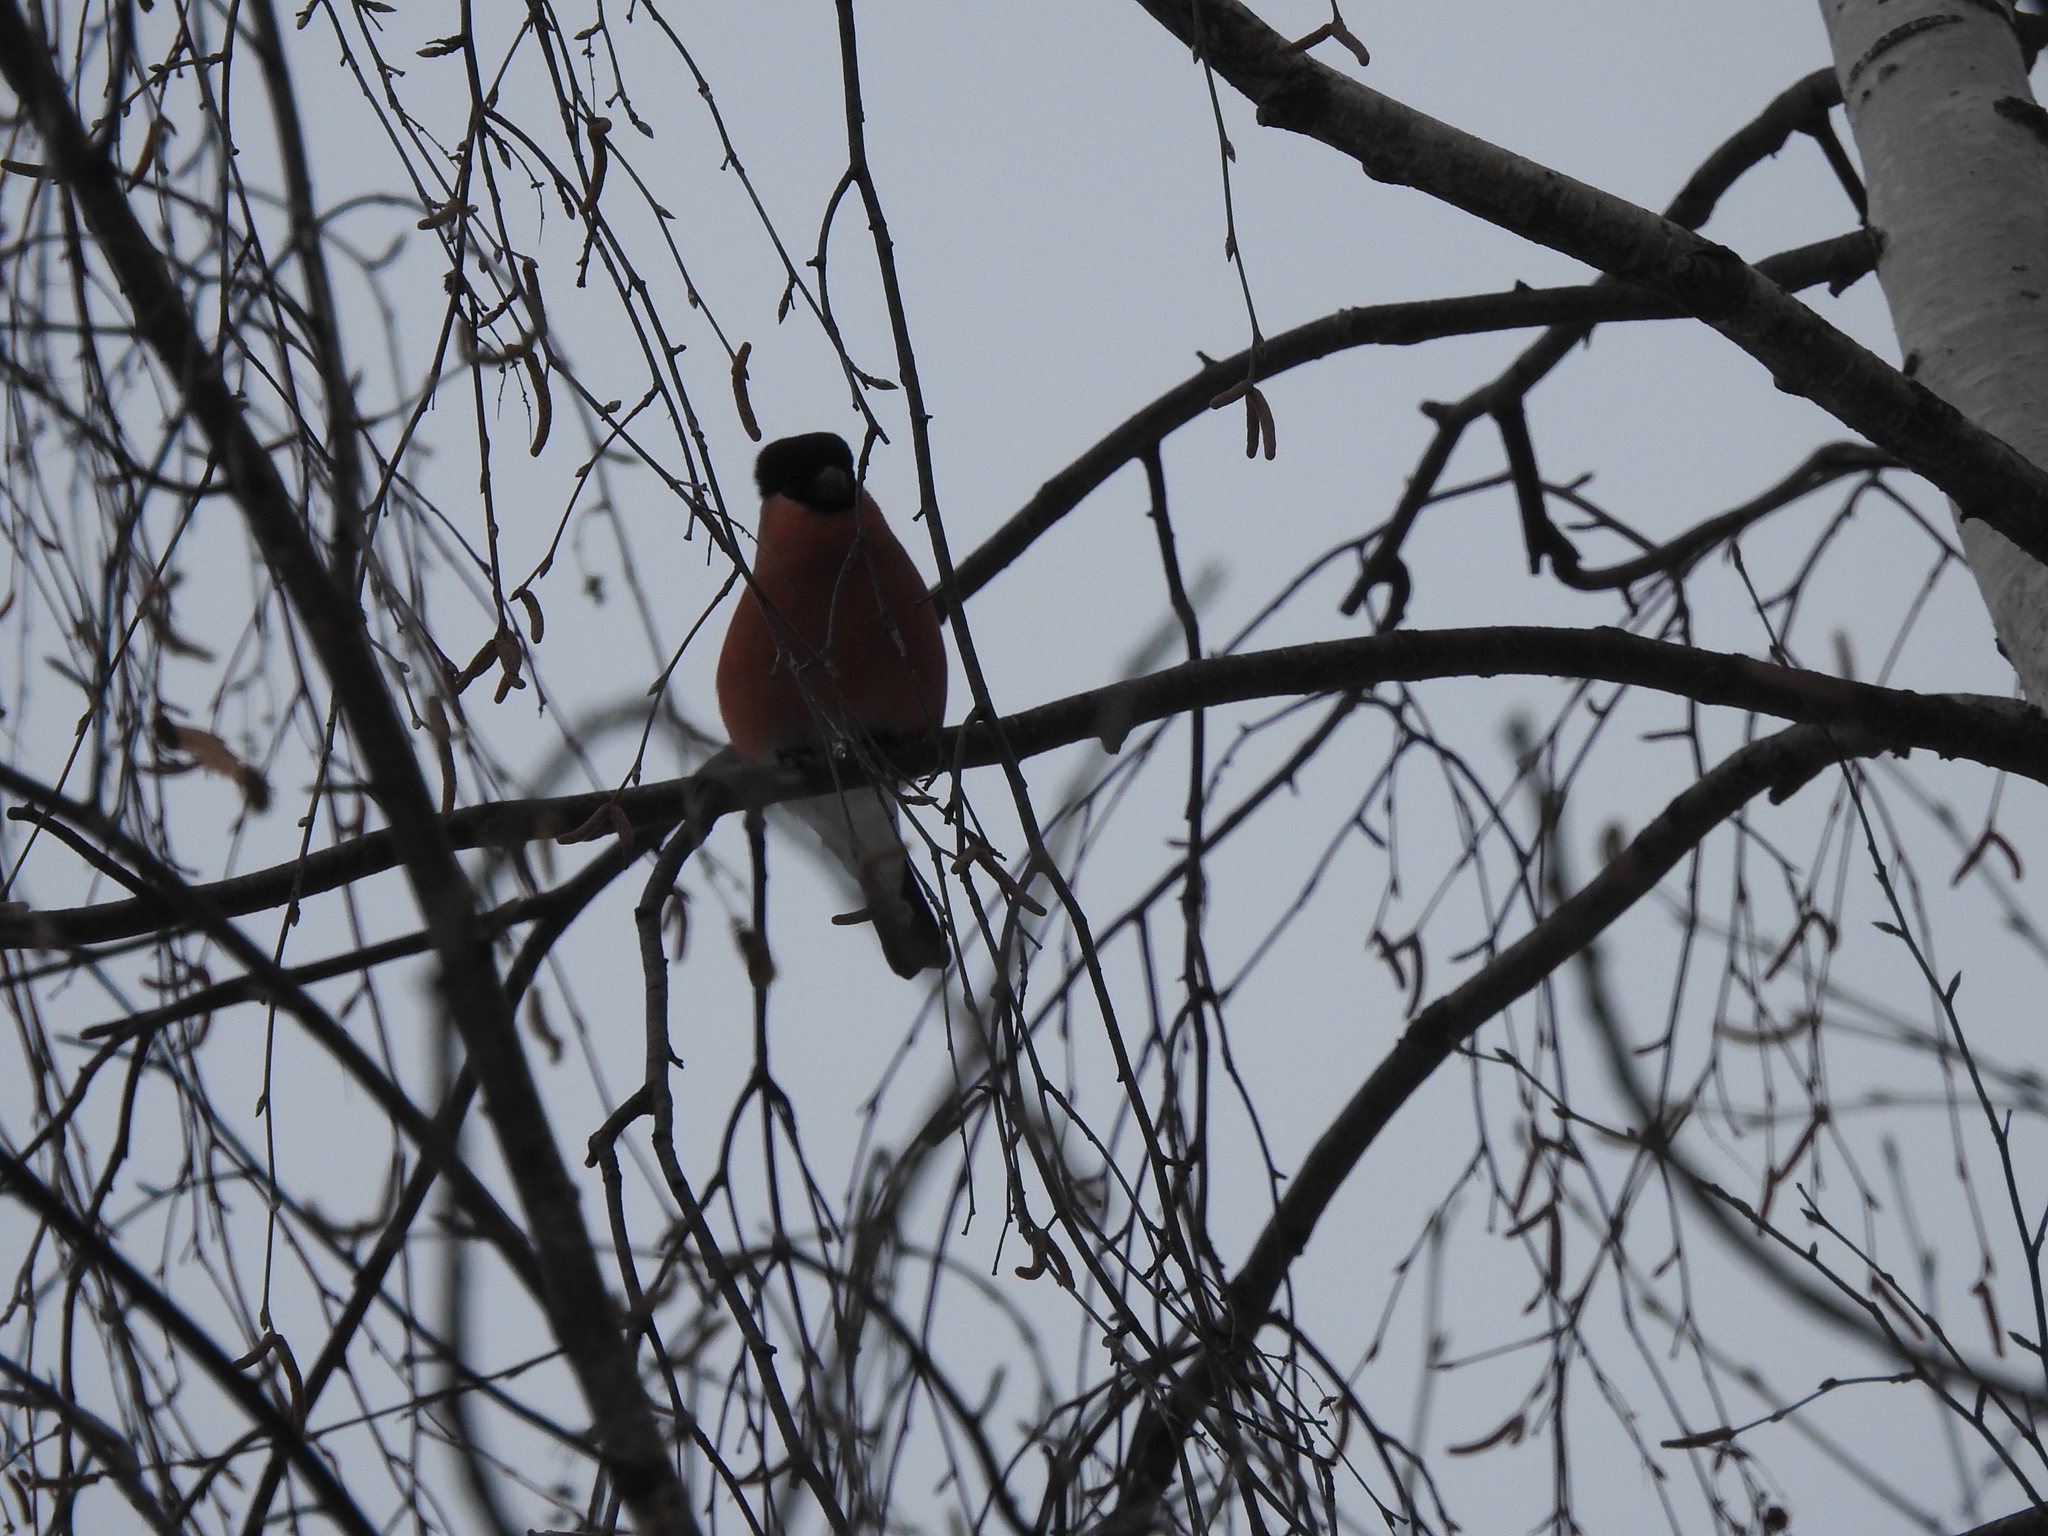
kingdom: Animalia
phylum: Chordata
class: Aves
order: Passeriformes
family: Fringillidae
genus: Pyrrhula
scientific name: Pyrrhula pyrrhula
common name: Eurasian bullfinch
